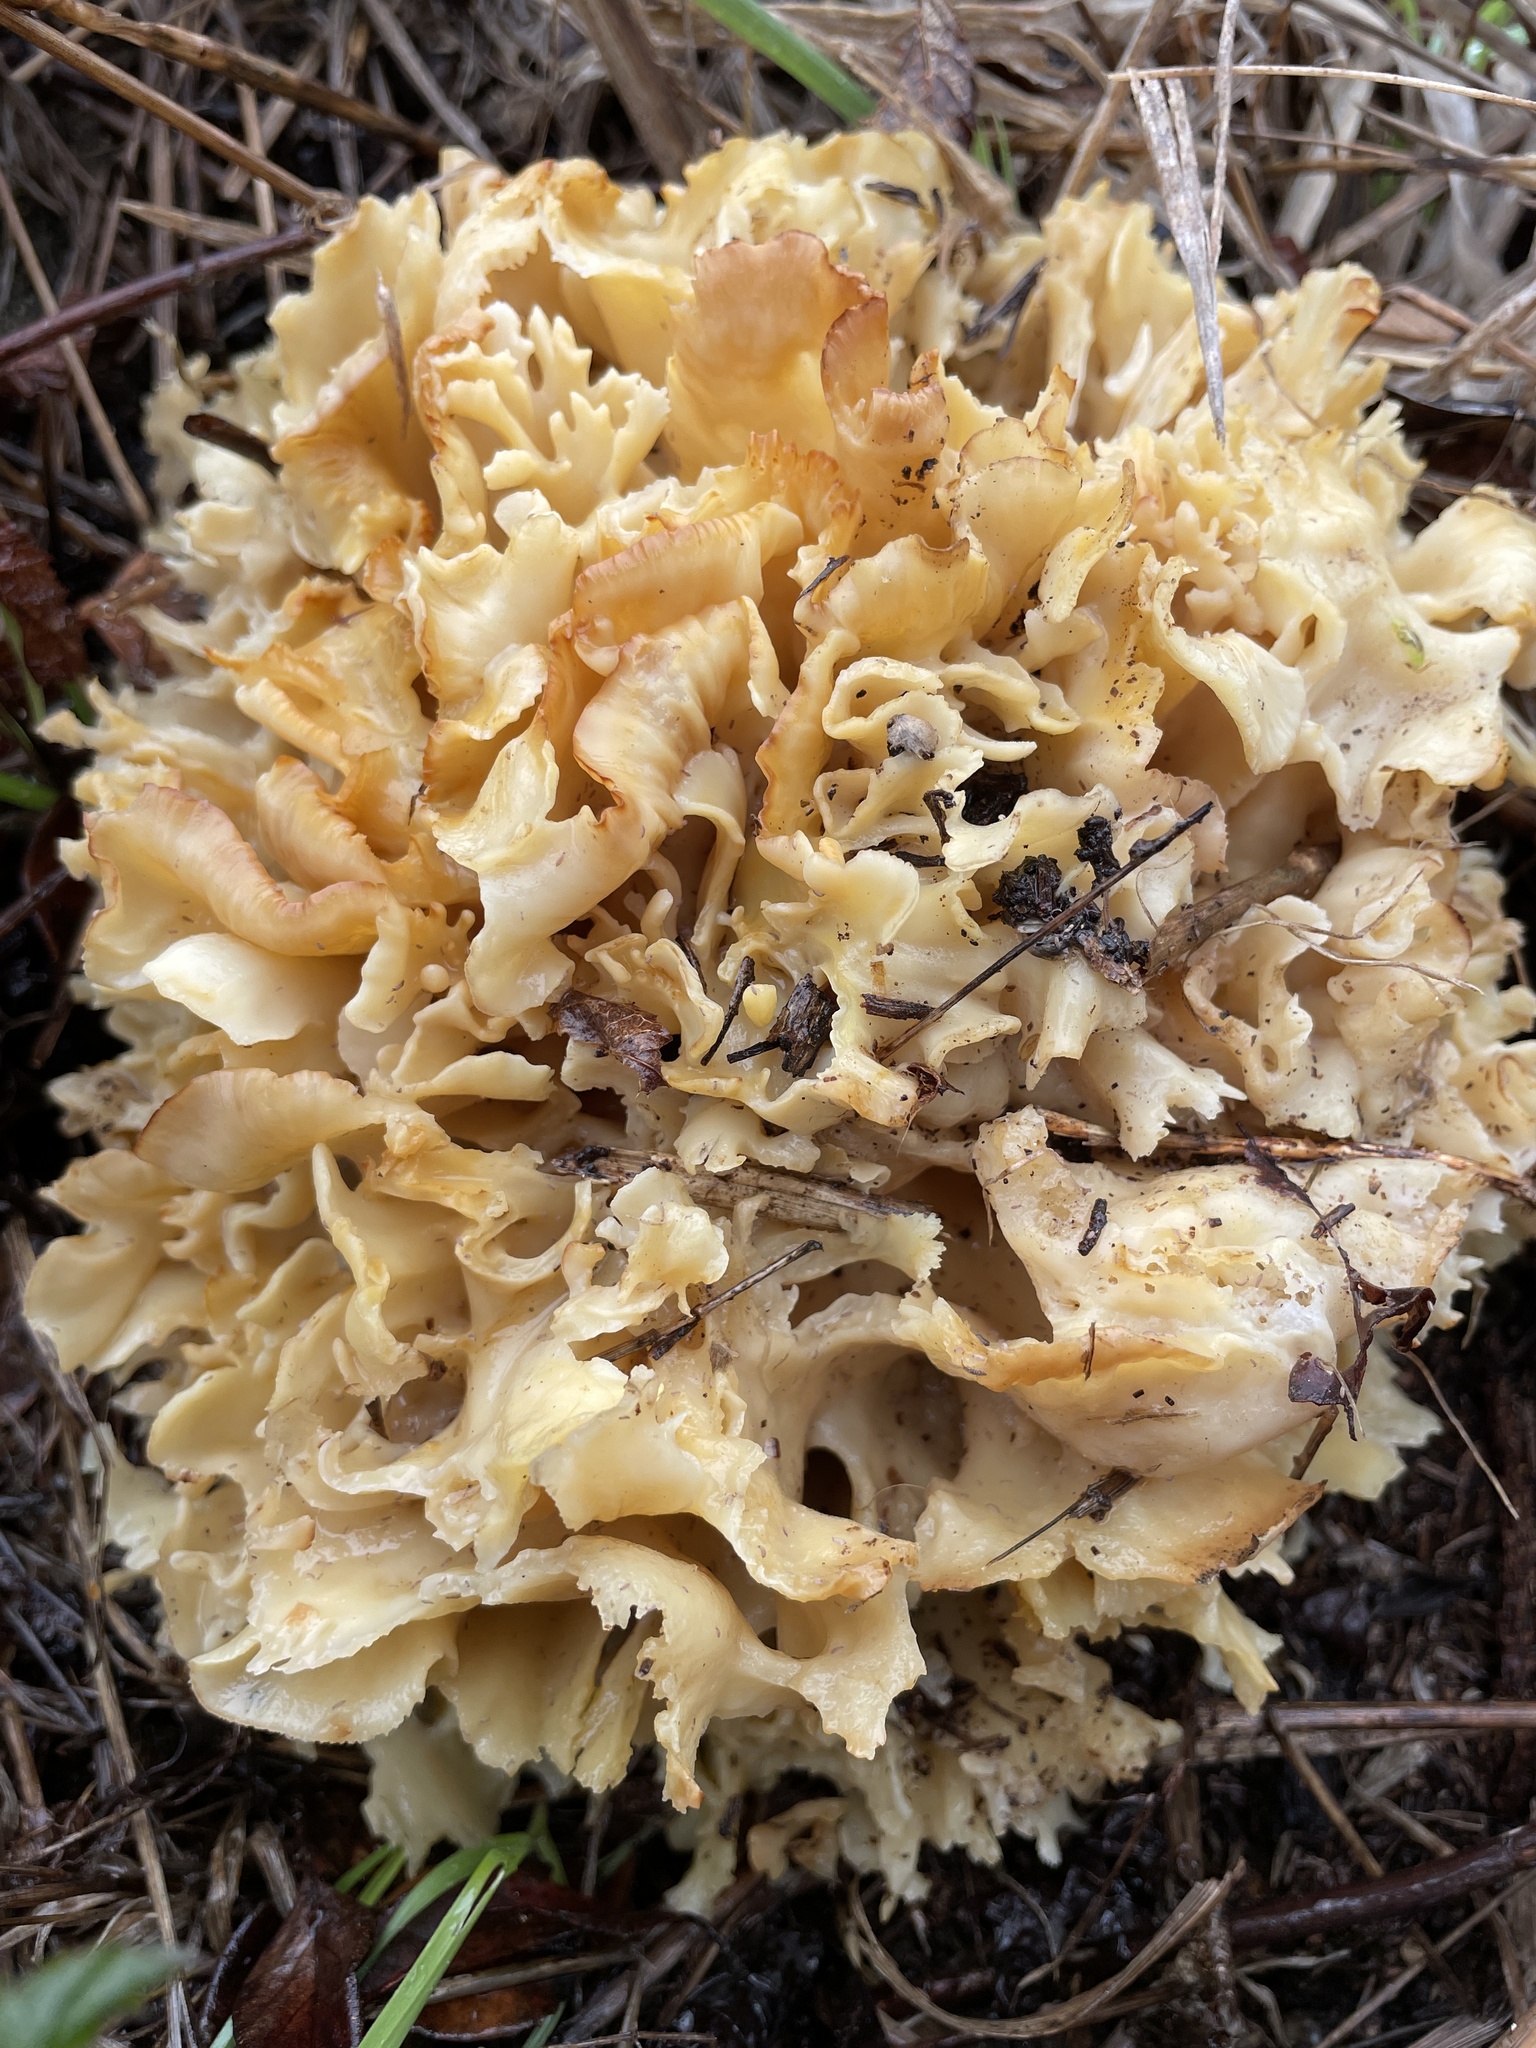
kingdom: Fungi
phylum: Basidiomycota
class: Agaricomycetes
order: Polyporales
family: Sparassidaceae
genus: Sparassis
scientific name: Sparassis radicata
